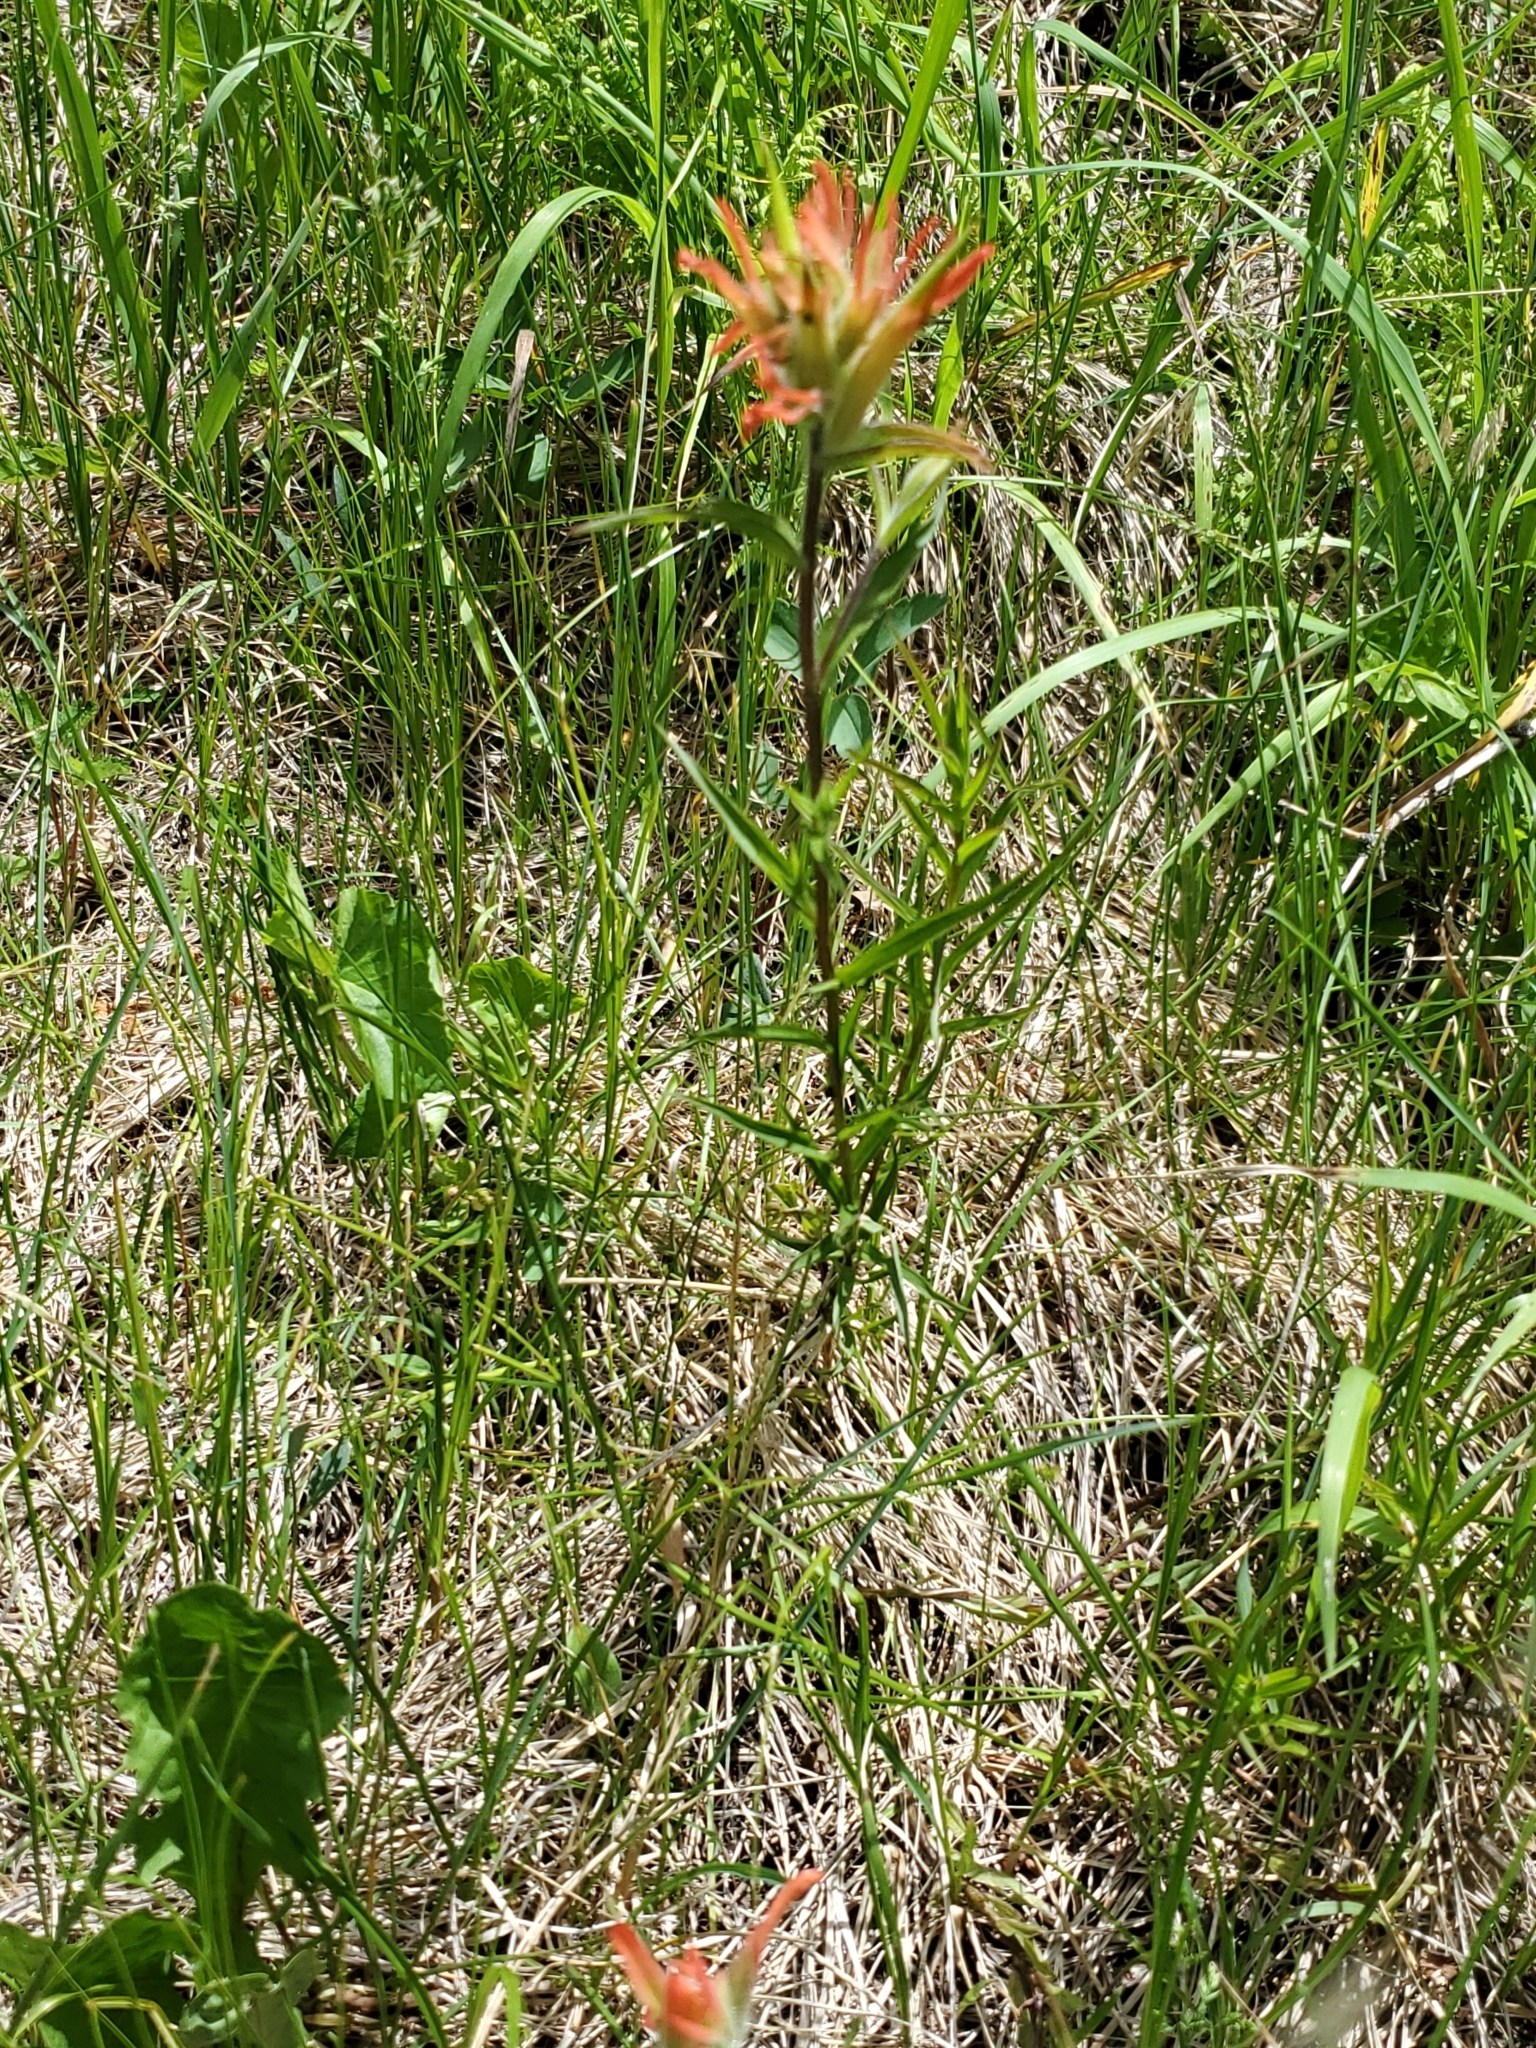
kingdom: Plantae
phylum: Tracheophyta
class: Magnoliopsida
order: Lamiales
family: Orobanchaceae
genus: Castilleja
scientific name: Castilleja miniata
